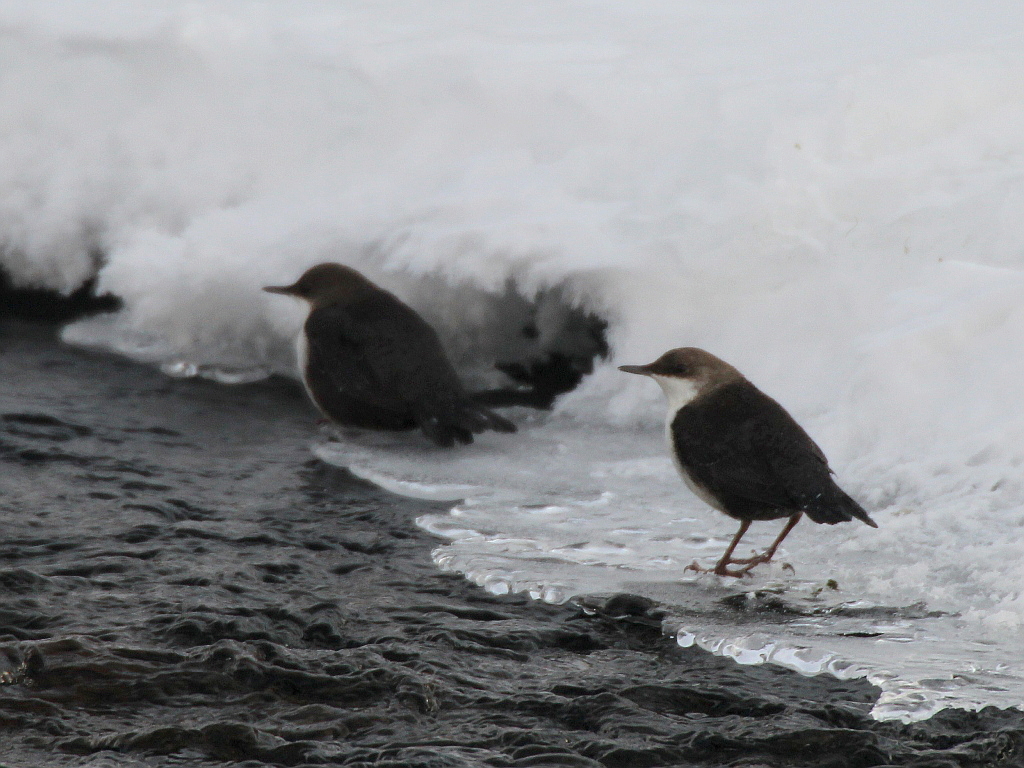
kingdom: Animalia
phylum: Chordata
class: Aves
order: Passeriformes
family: Cinclidae
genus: Cinclus
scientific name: Cinclus cinclus
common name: White-throated dipper
